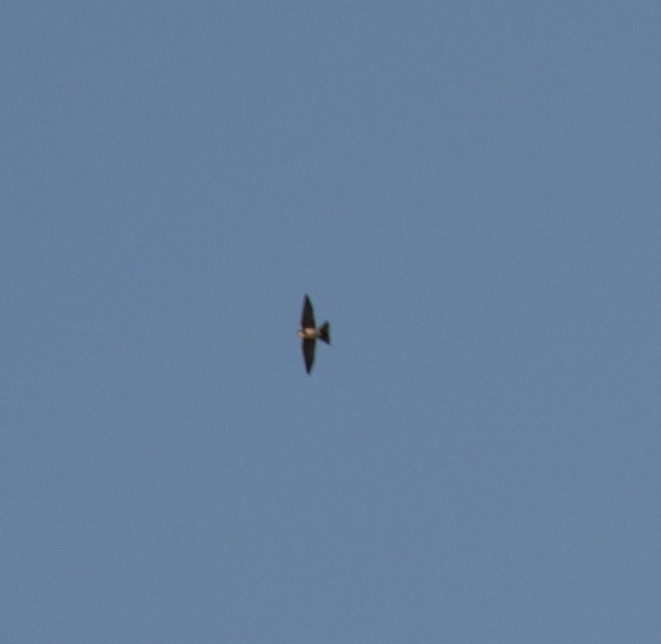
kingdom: Animalia
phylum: Chordata
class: Aves
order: Passeriformes
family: Hirundinidae
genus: Notiochelidon
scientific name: Notiochelidon cyanoleuca
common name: Blue-and-white swallow
